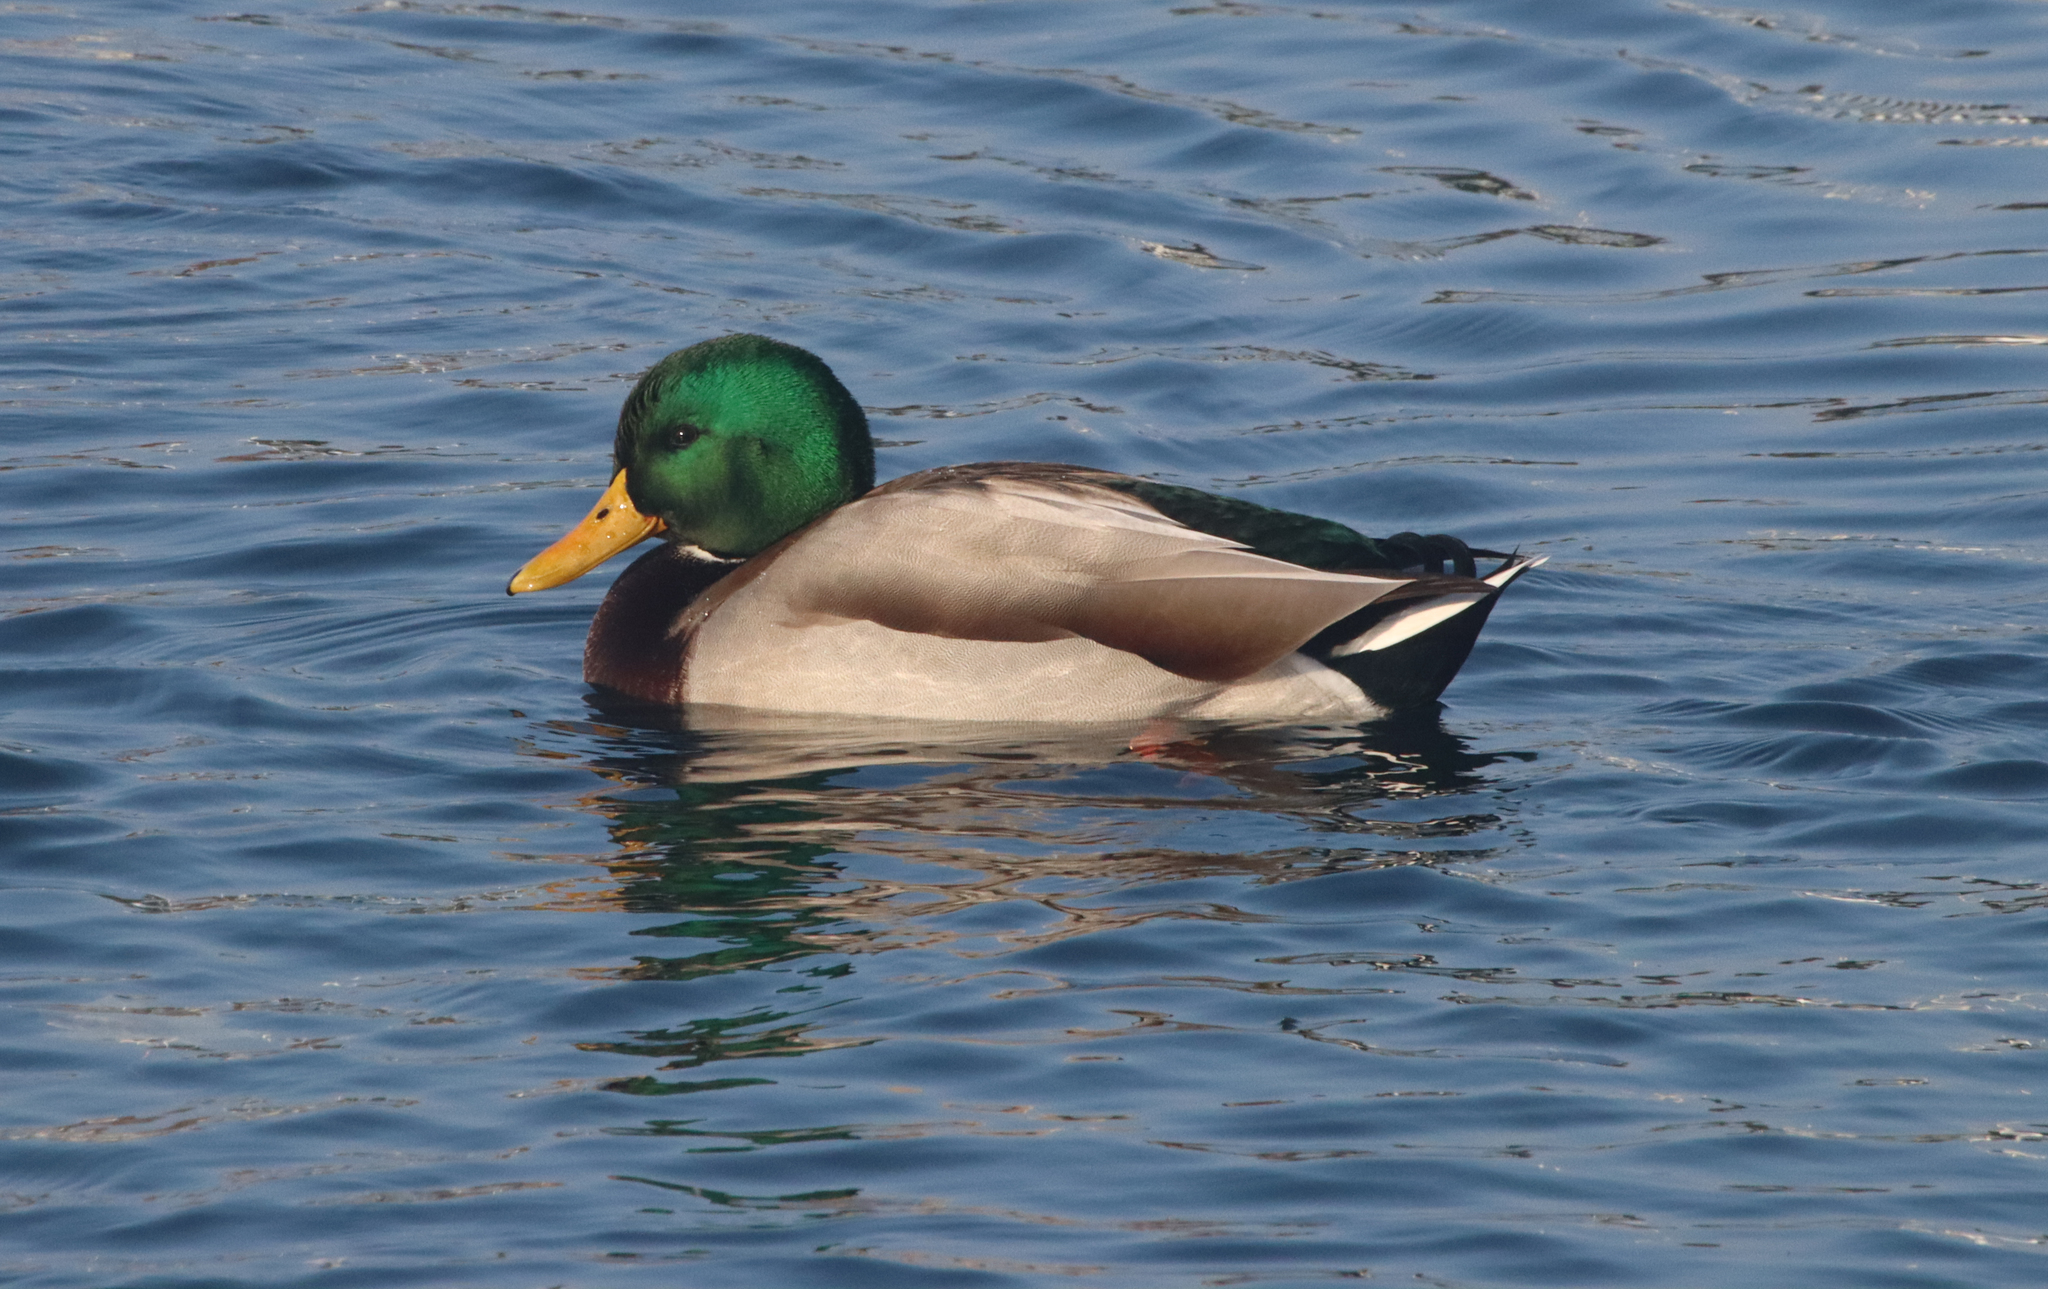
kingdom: Animalia
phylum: Chordata
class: Aves
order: Anseriformes
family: Anatidae
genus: Anas
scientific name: Anas platyrhynchos
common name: Mallard
